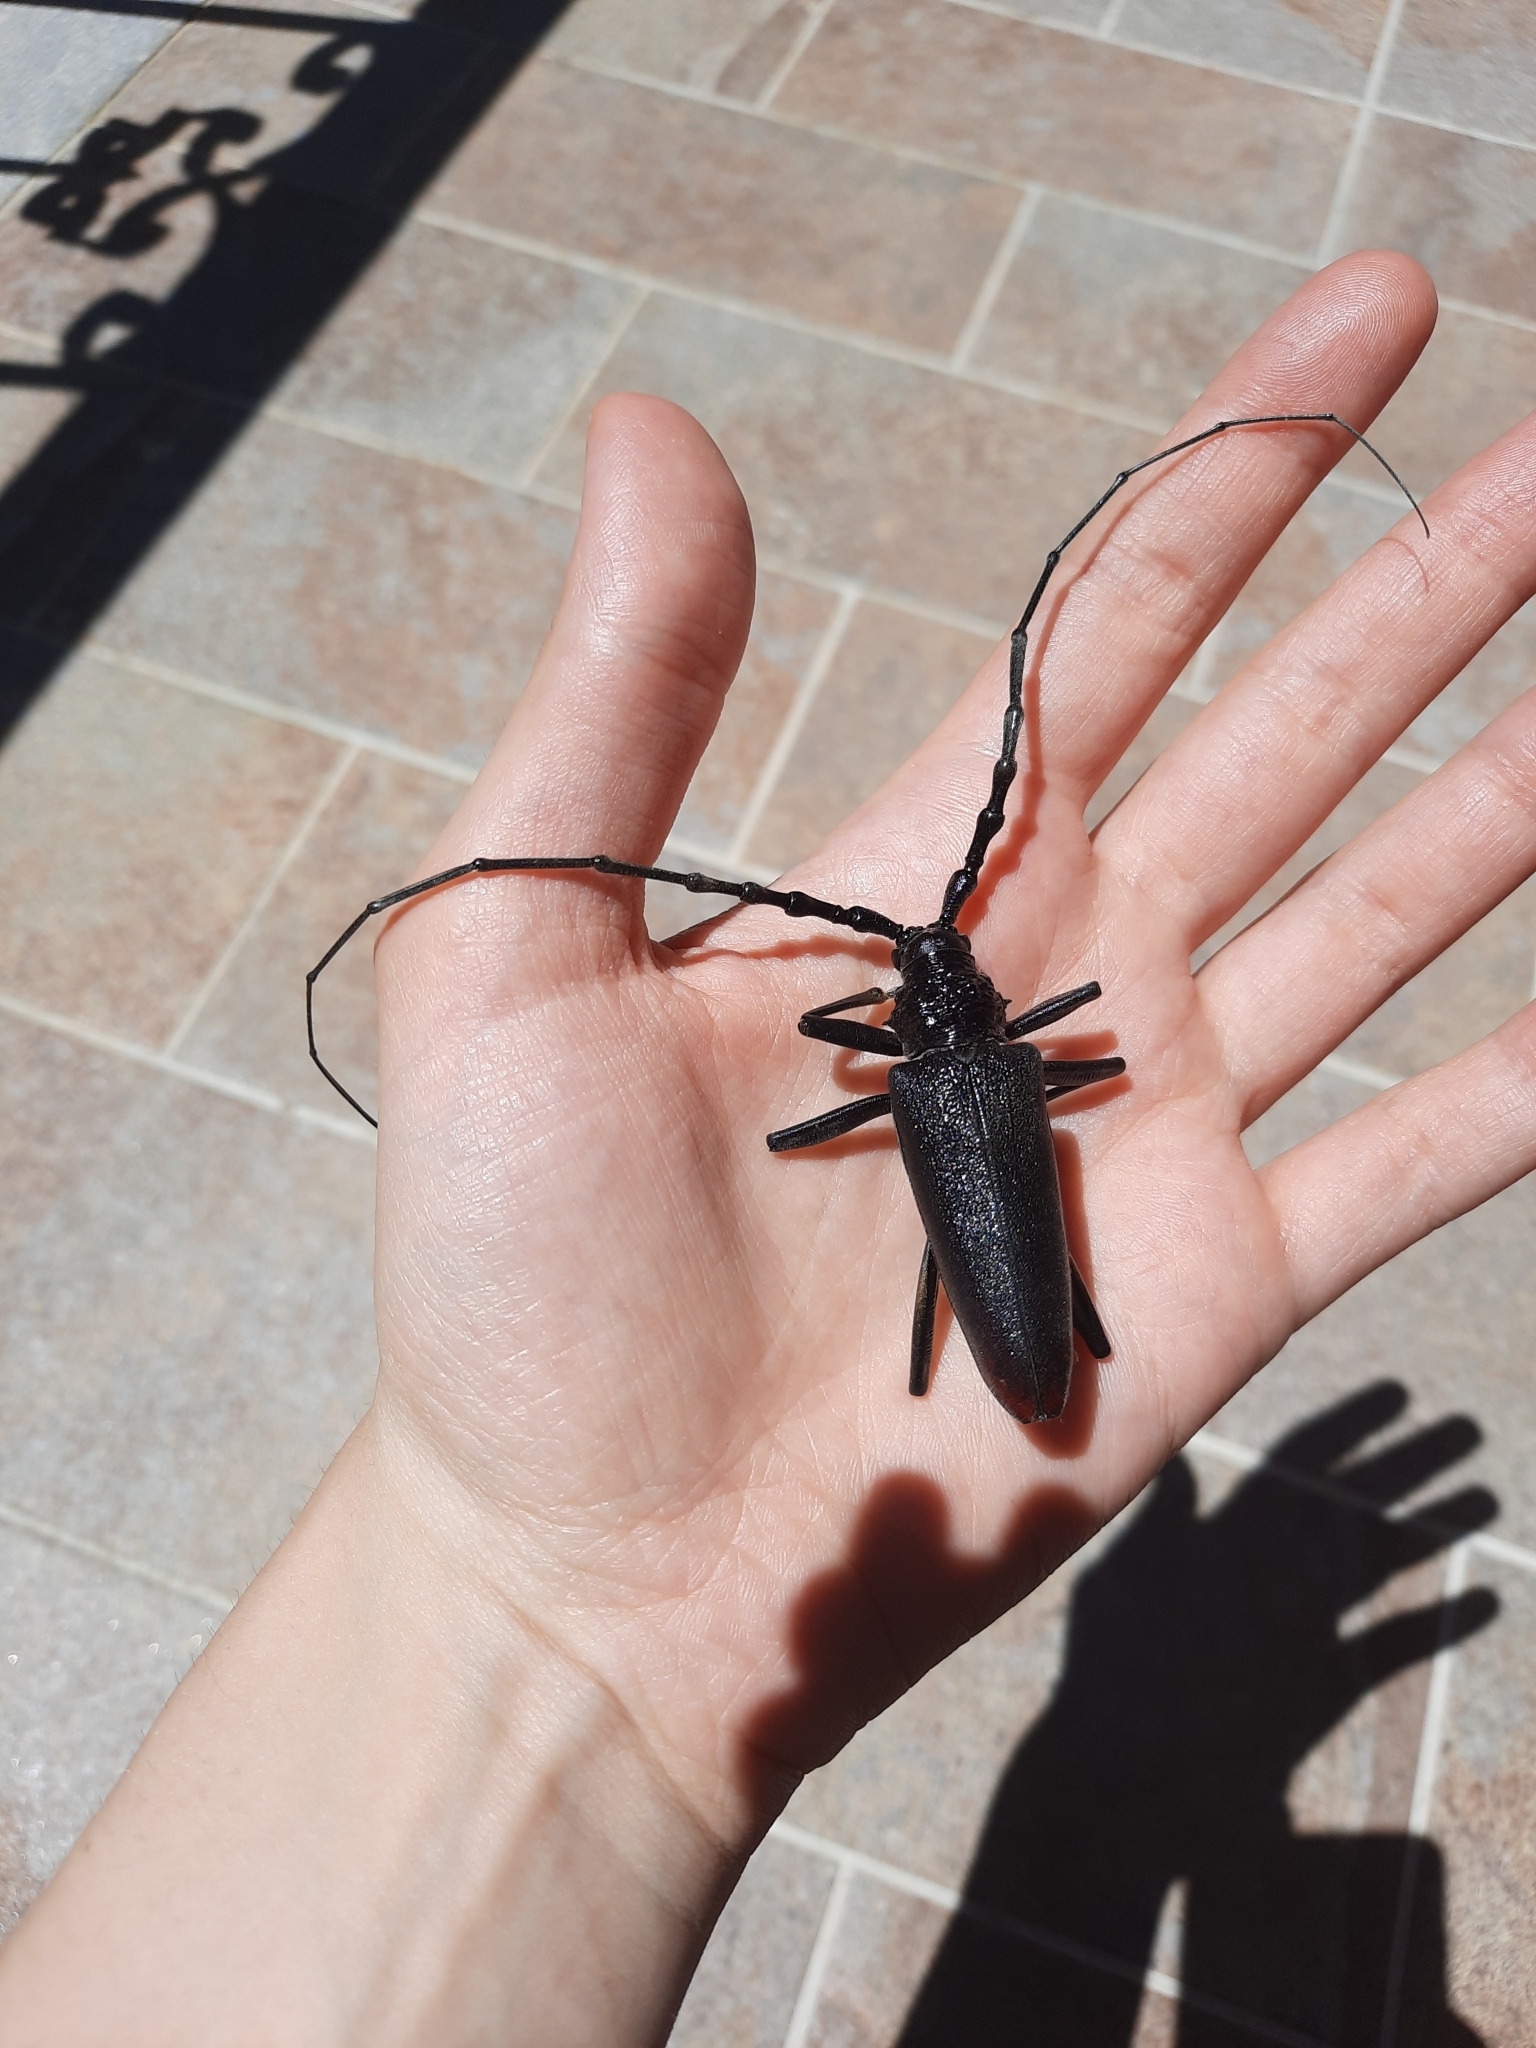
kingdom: Animalia
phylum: Arthropoda
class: Insecta
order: Coleoptera
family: Cerambycidae
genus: Cerambyx
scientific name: Cerambyx cerdo
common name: Cerambyx longicorn
